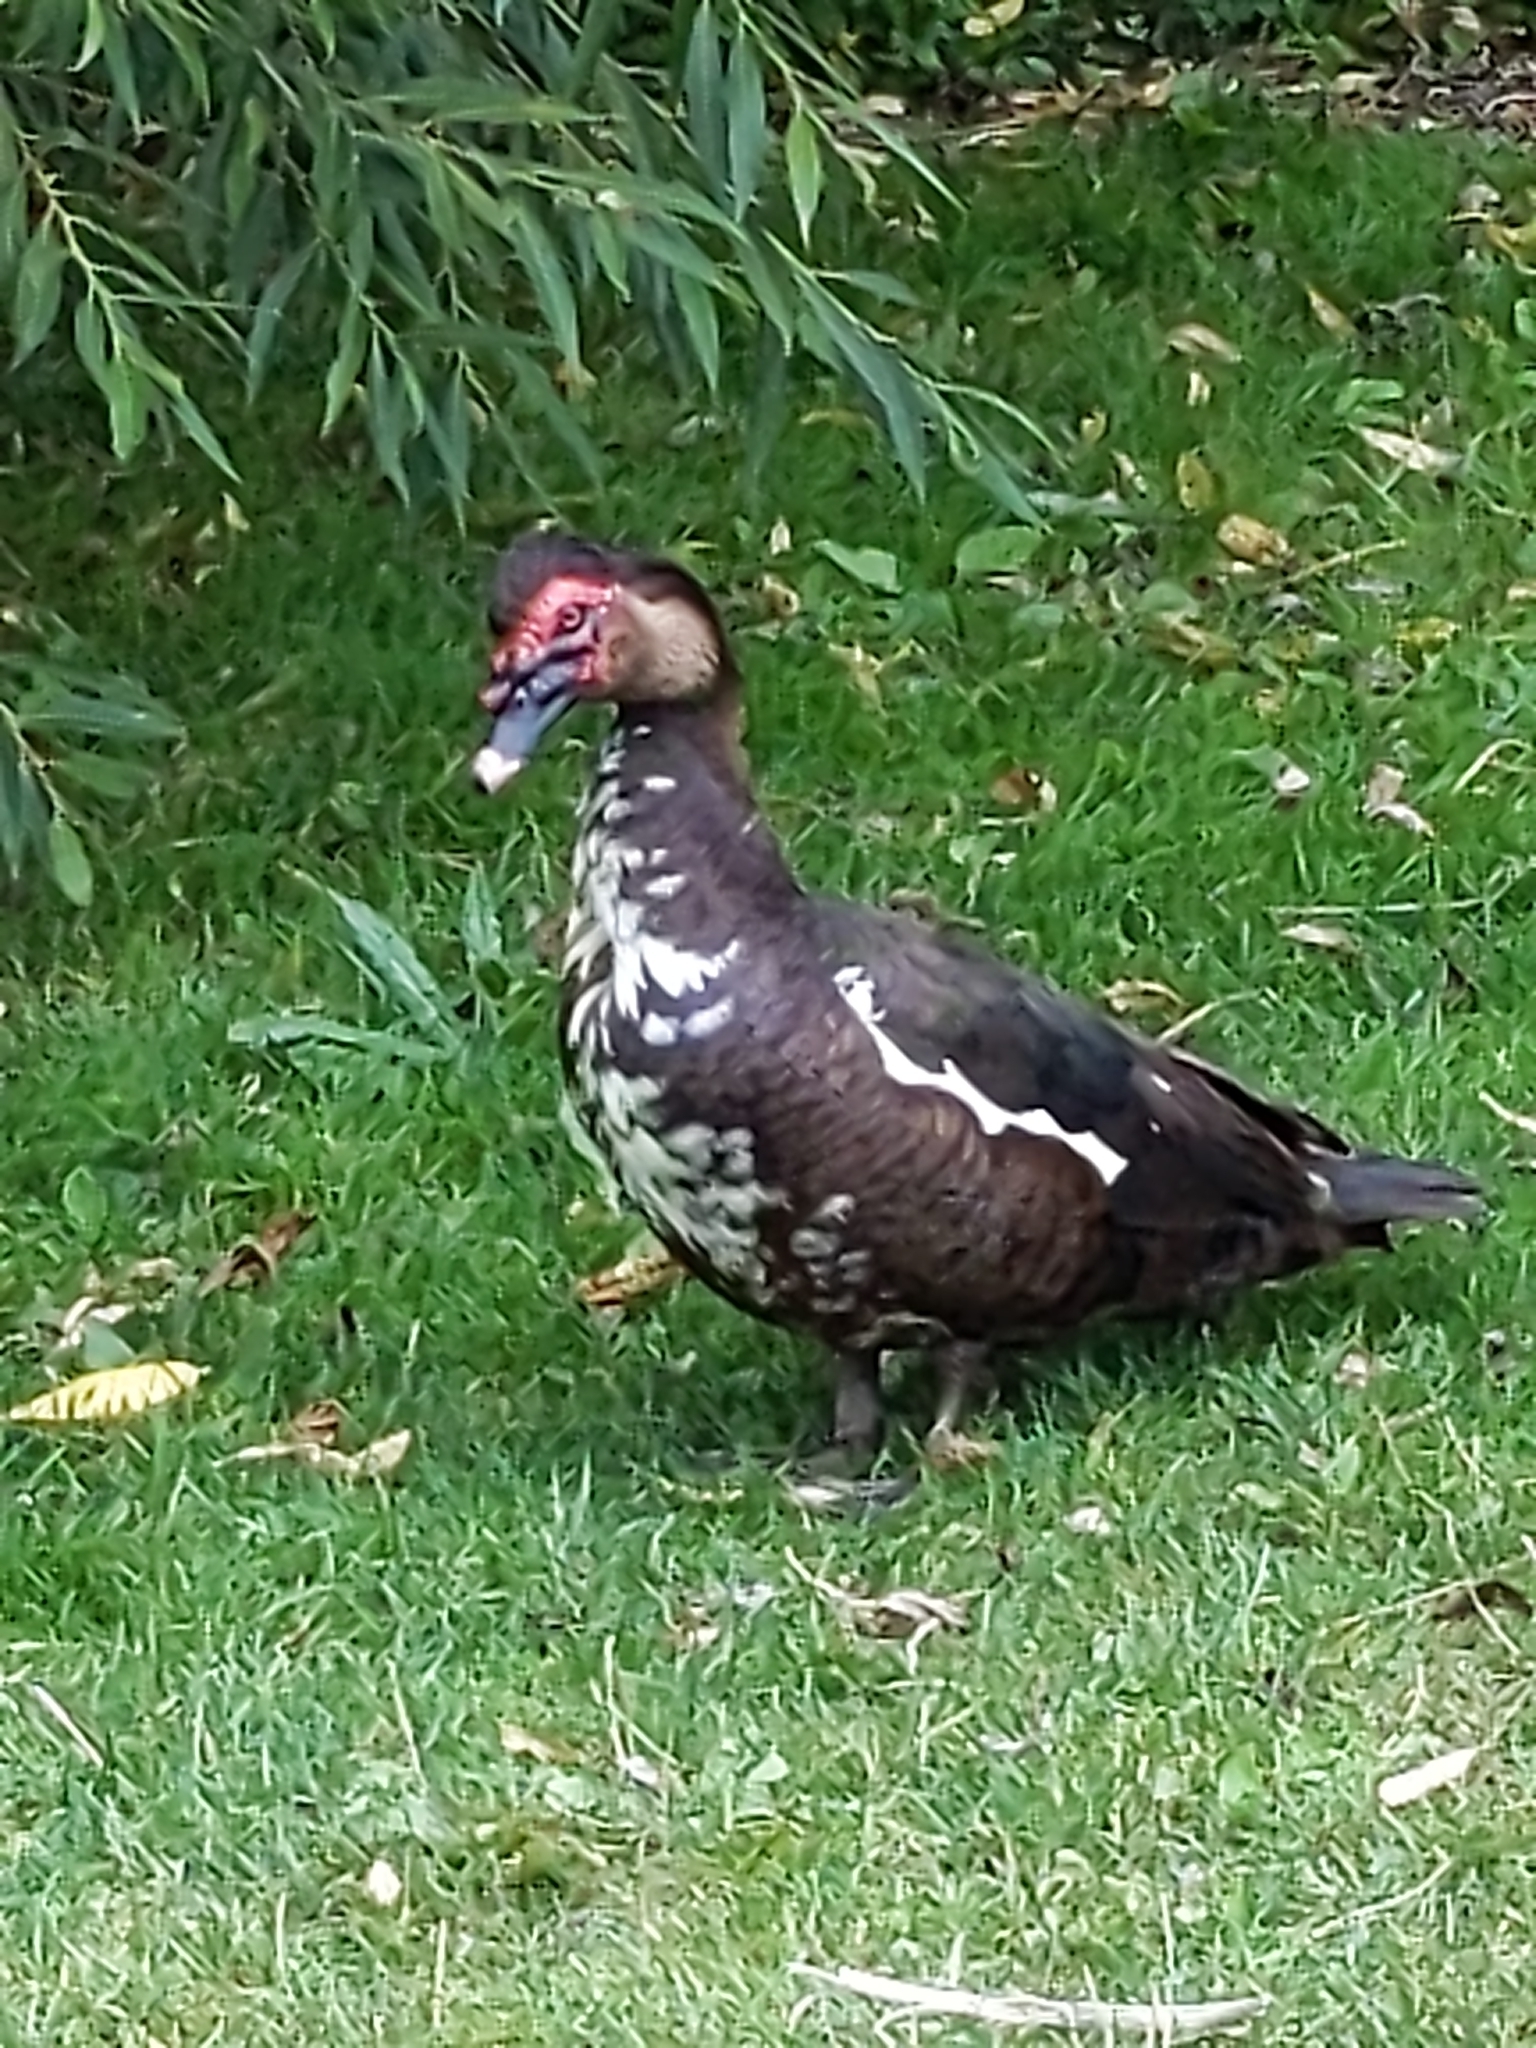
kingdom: Animalia
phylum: Chordata
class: Aves
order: Anseriformes
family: Anatidae
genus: Cairina
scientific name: Cairina moschata
